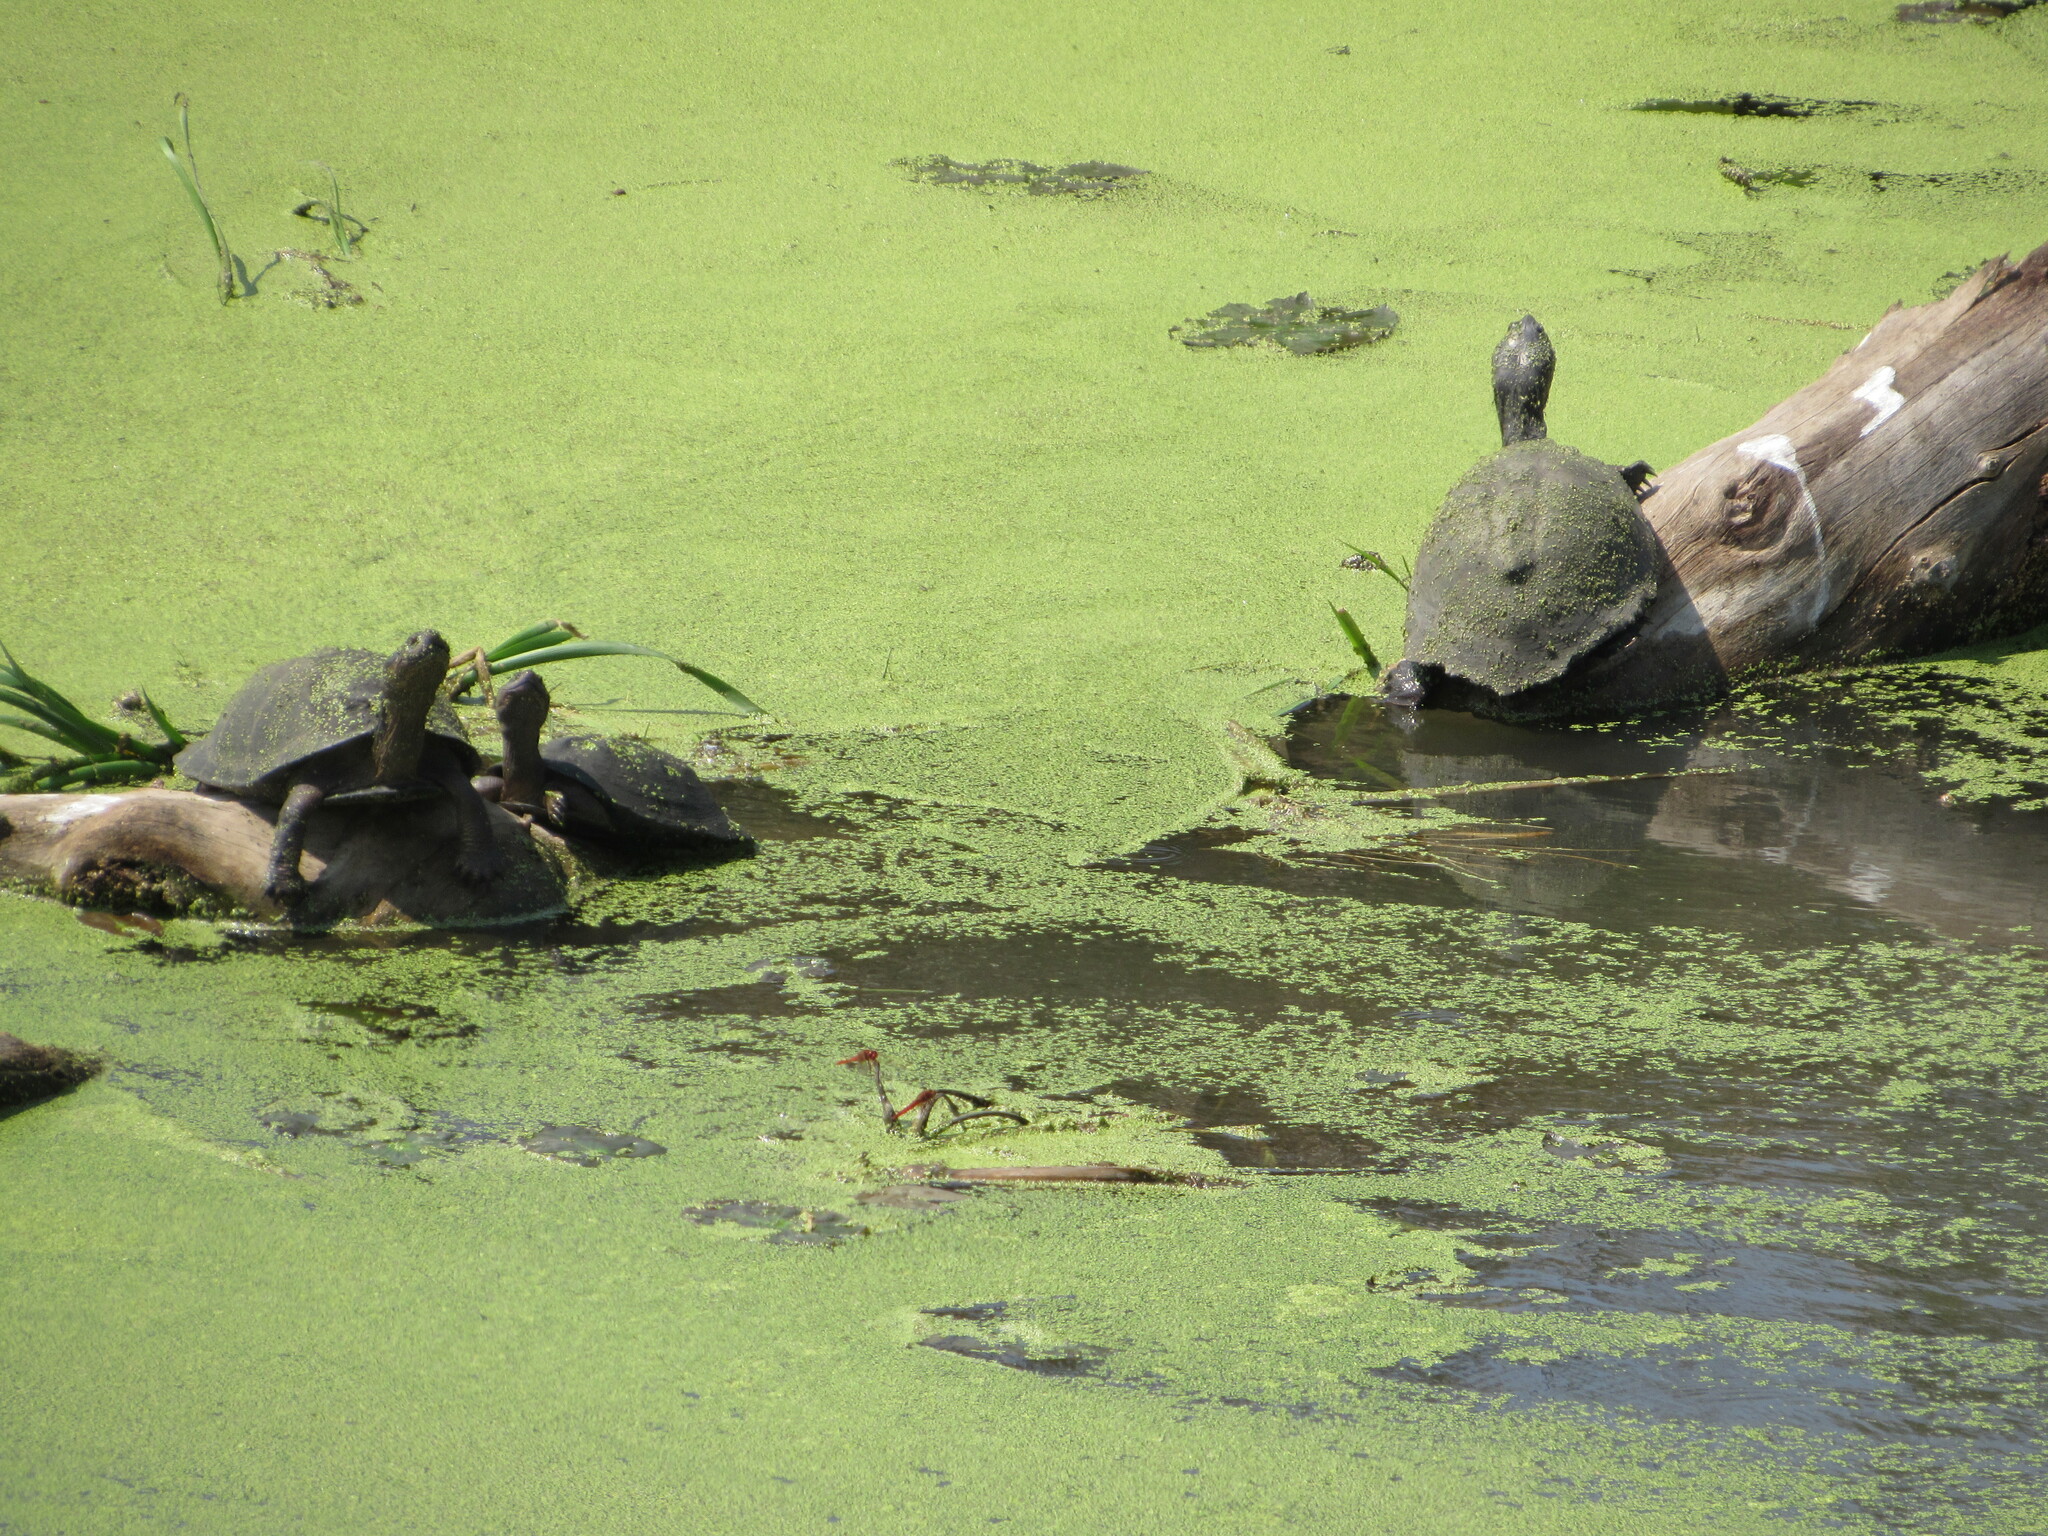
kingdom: Animalia
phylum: Chordata
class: Testudines
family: Pelomedusidae
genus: Pelusios
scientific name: Pelusios sinuatus
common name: Serrated hinged terrapin
